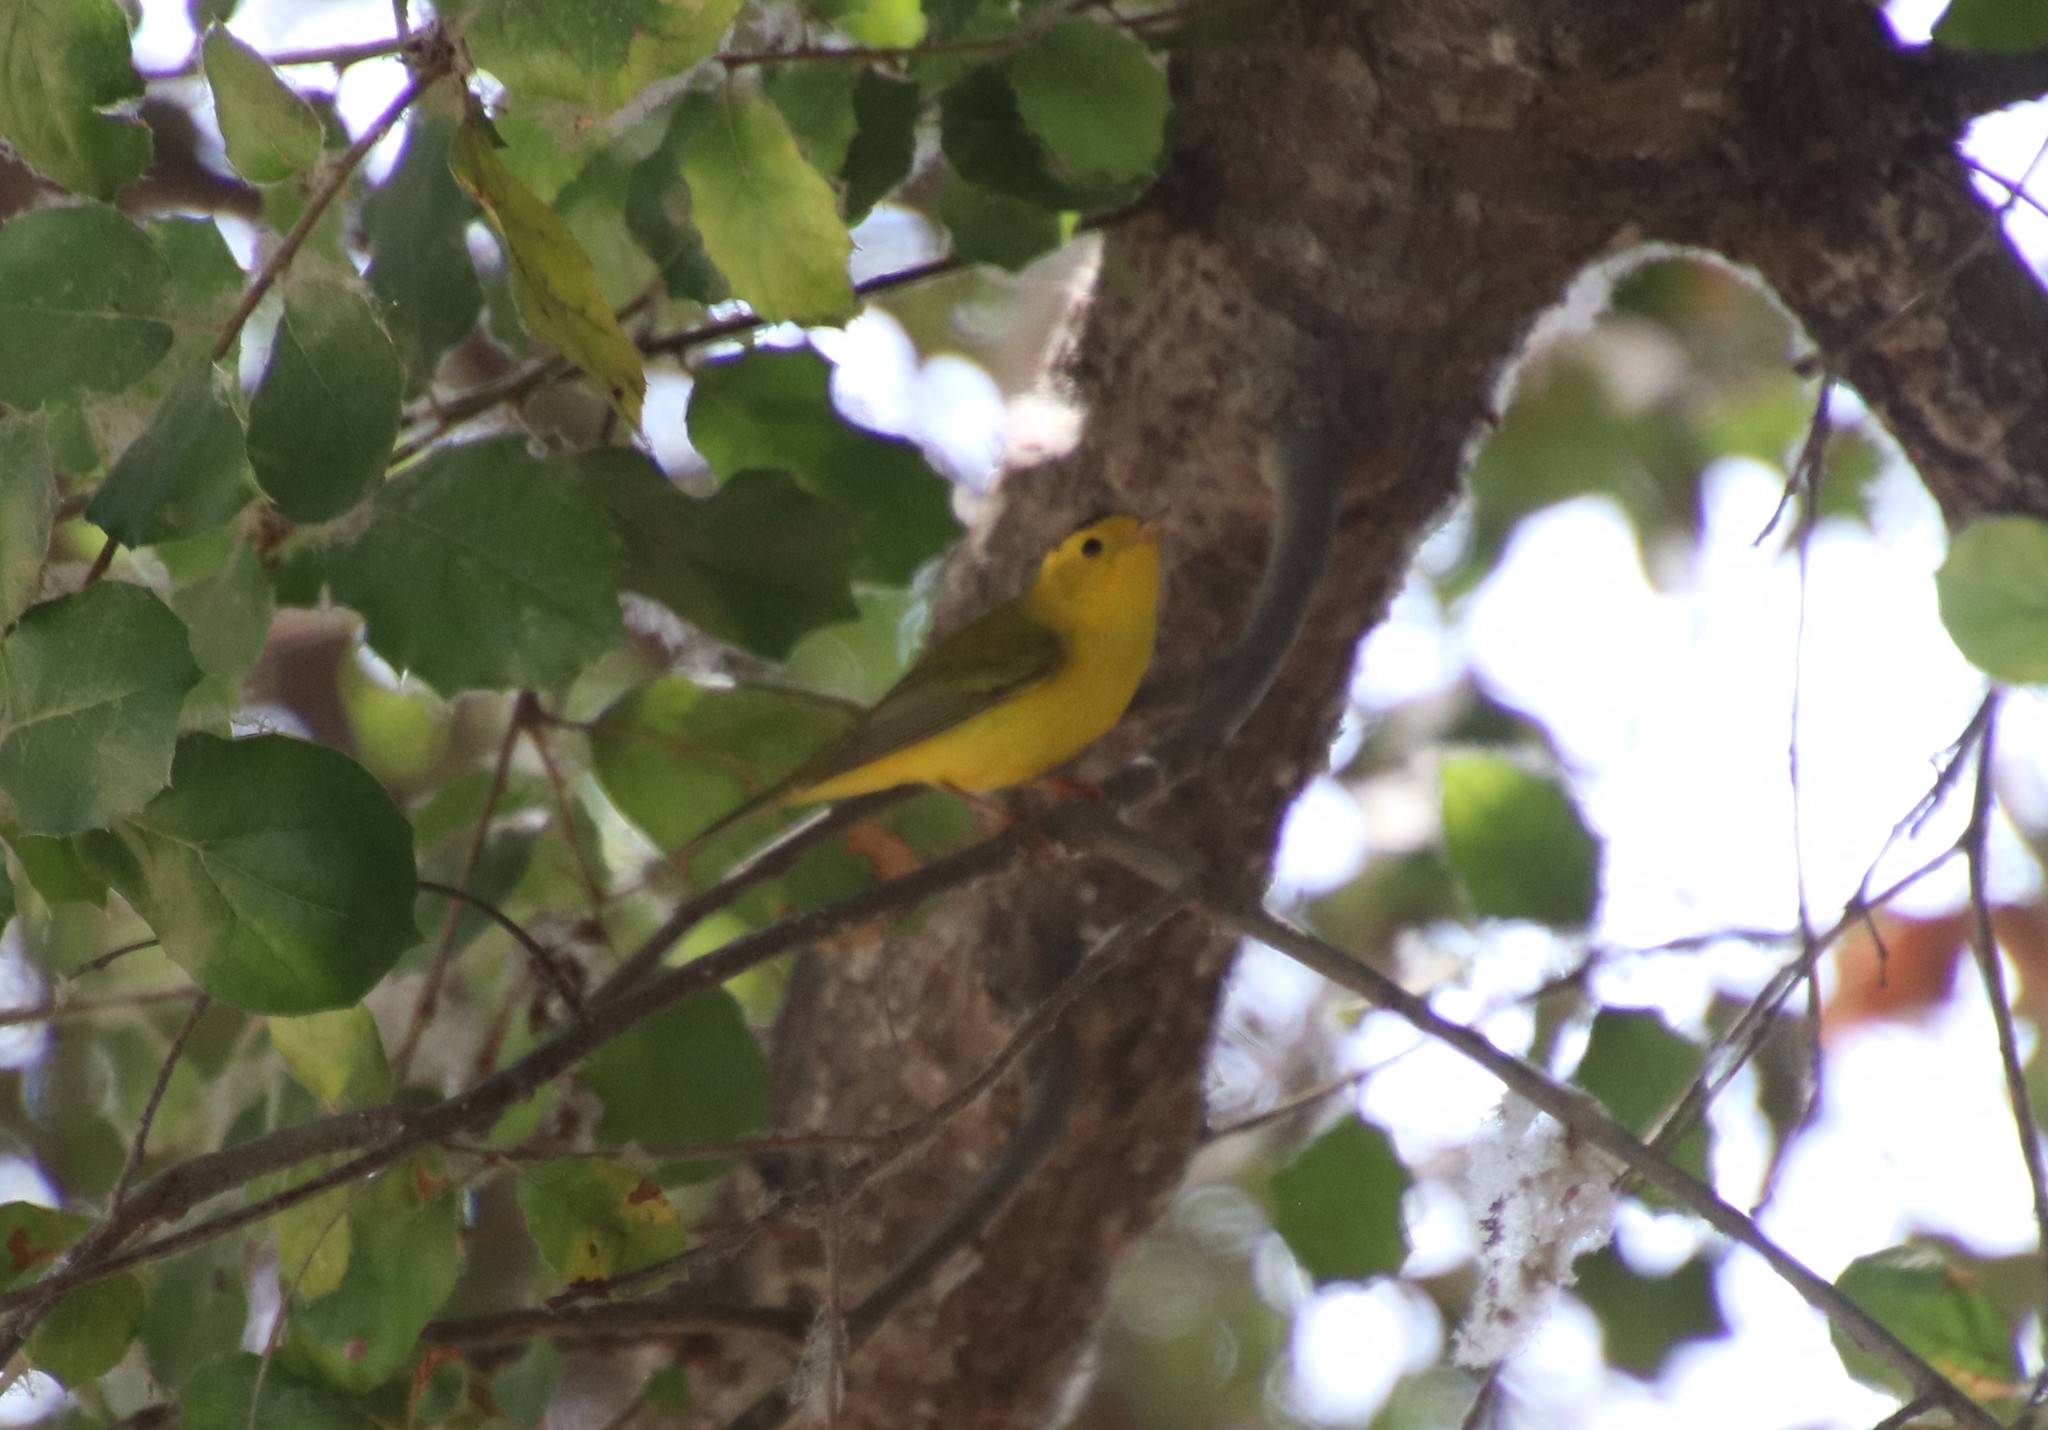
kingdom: Animalia
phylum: Chordata
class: Aves
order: Passeriformes
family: Parulidae
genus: Cardellina
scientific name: Cardellina pusilla
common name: Wilson's warbler
